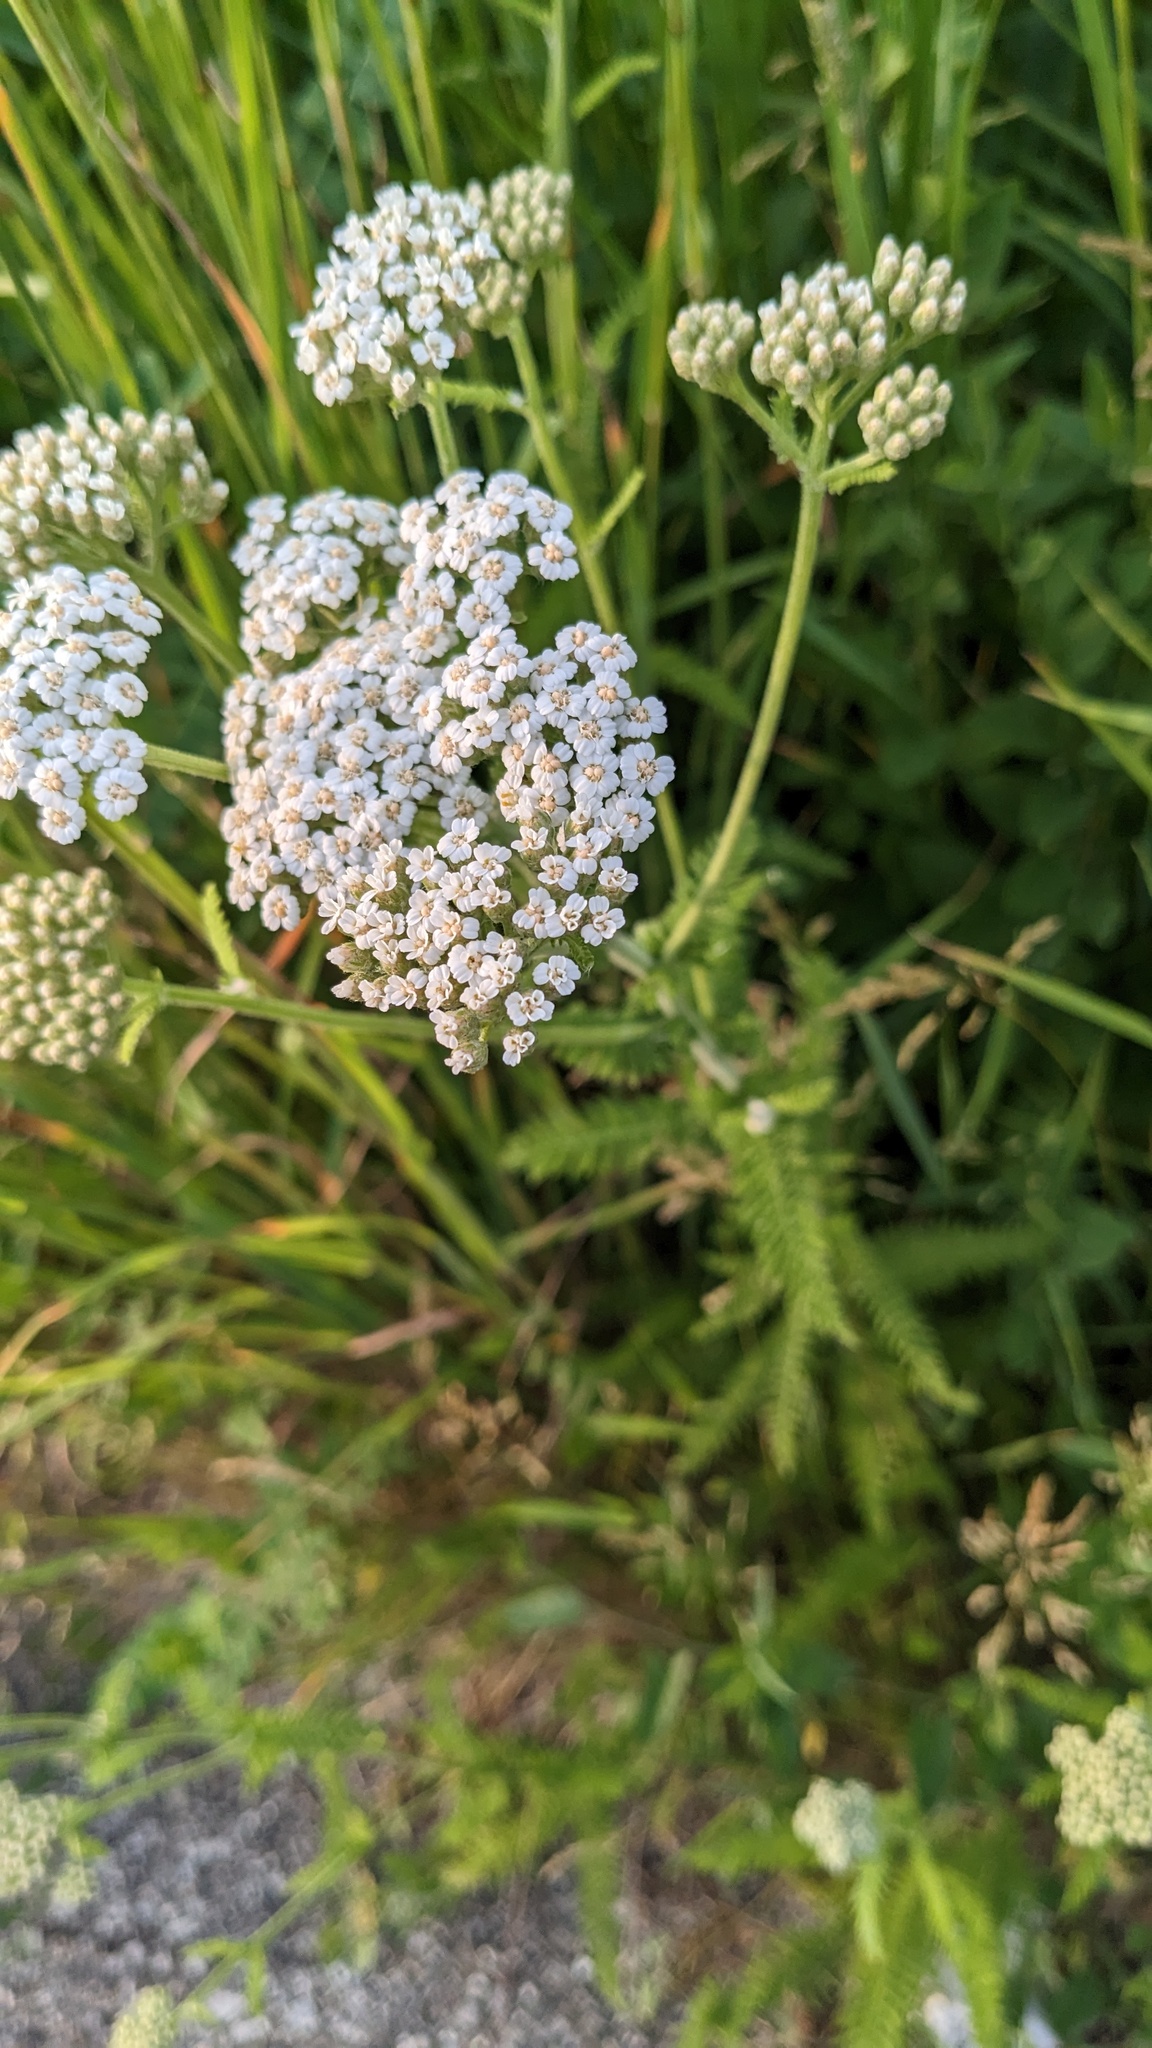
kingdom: Plantae
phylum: Tracheophyta
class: Magnoliopsida
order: Asterales
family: Asteraceae
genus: Achillea
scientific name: Achillea millefolium
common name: Yarrow
